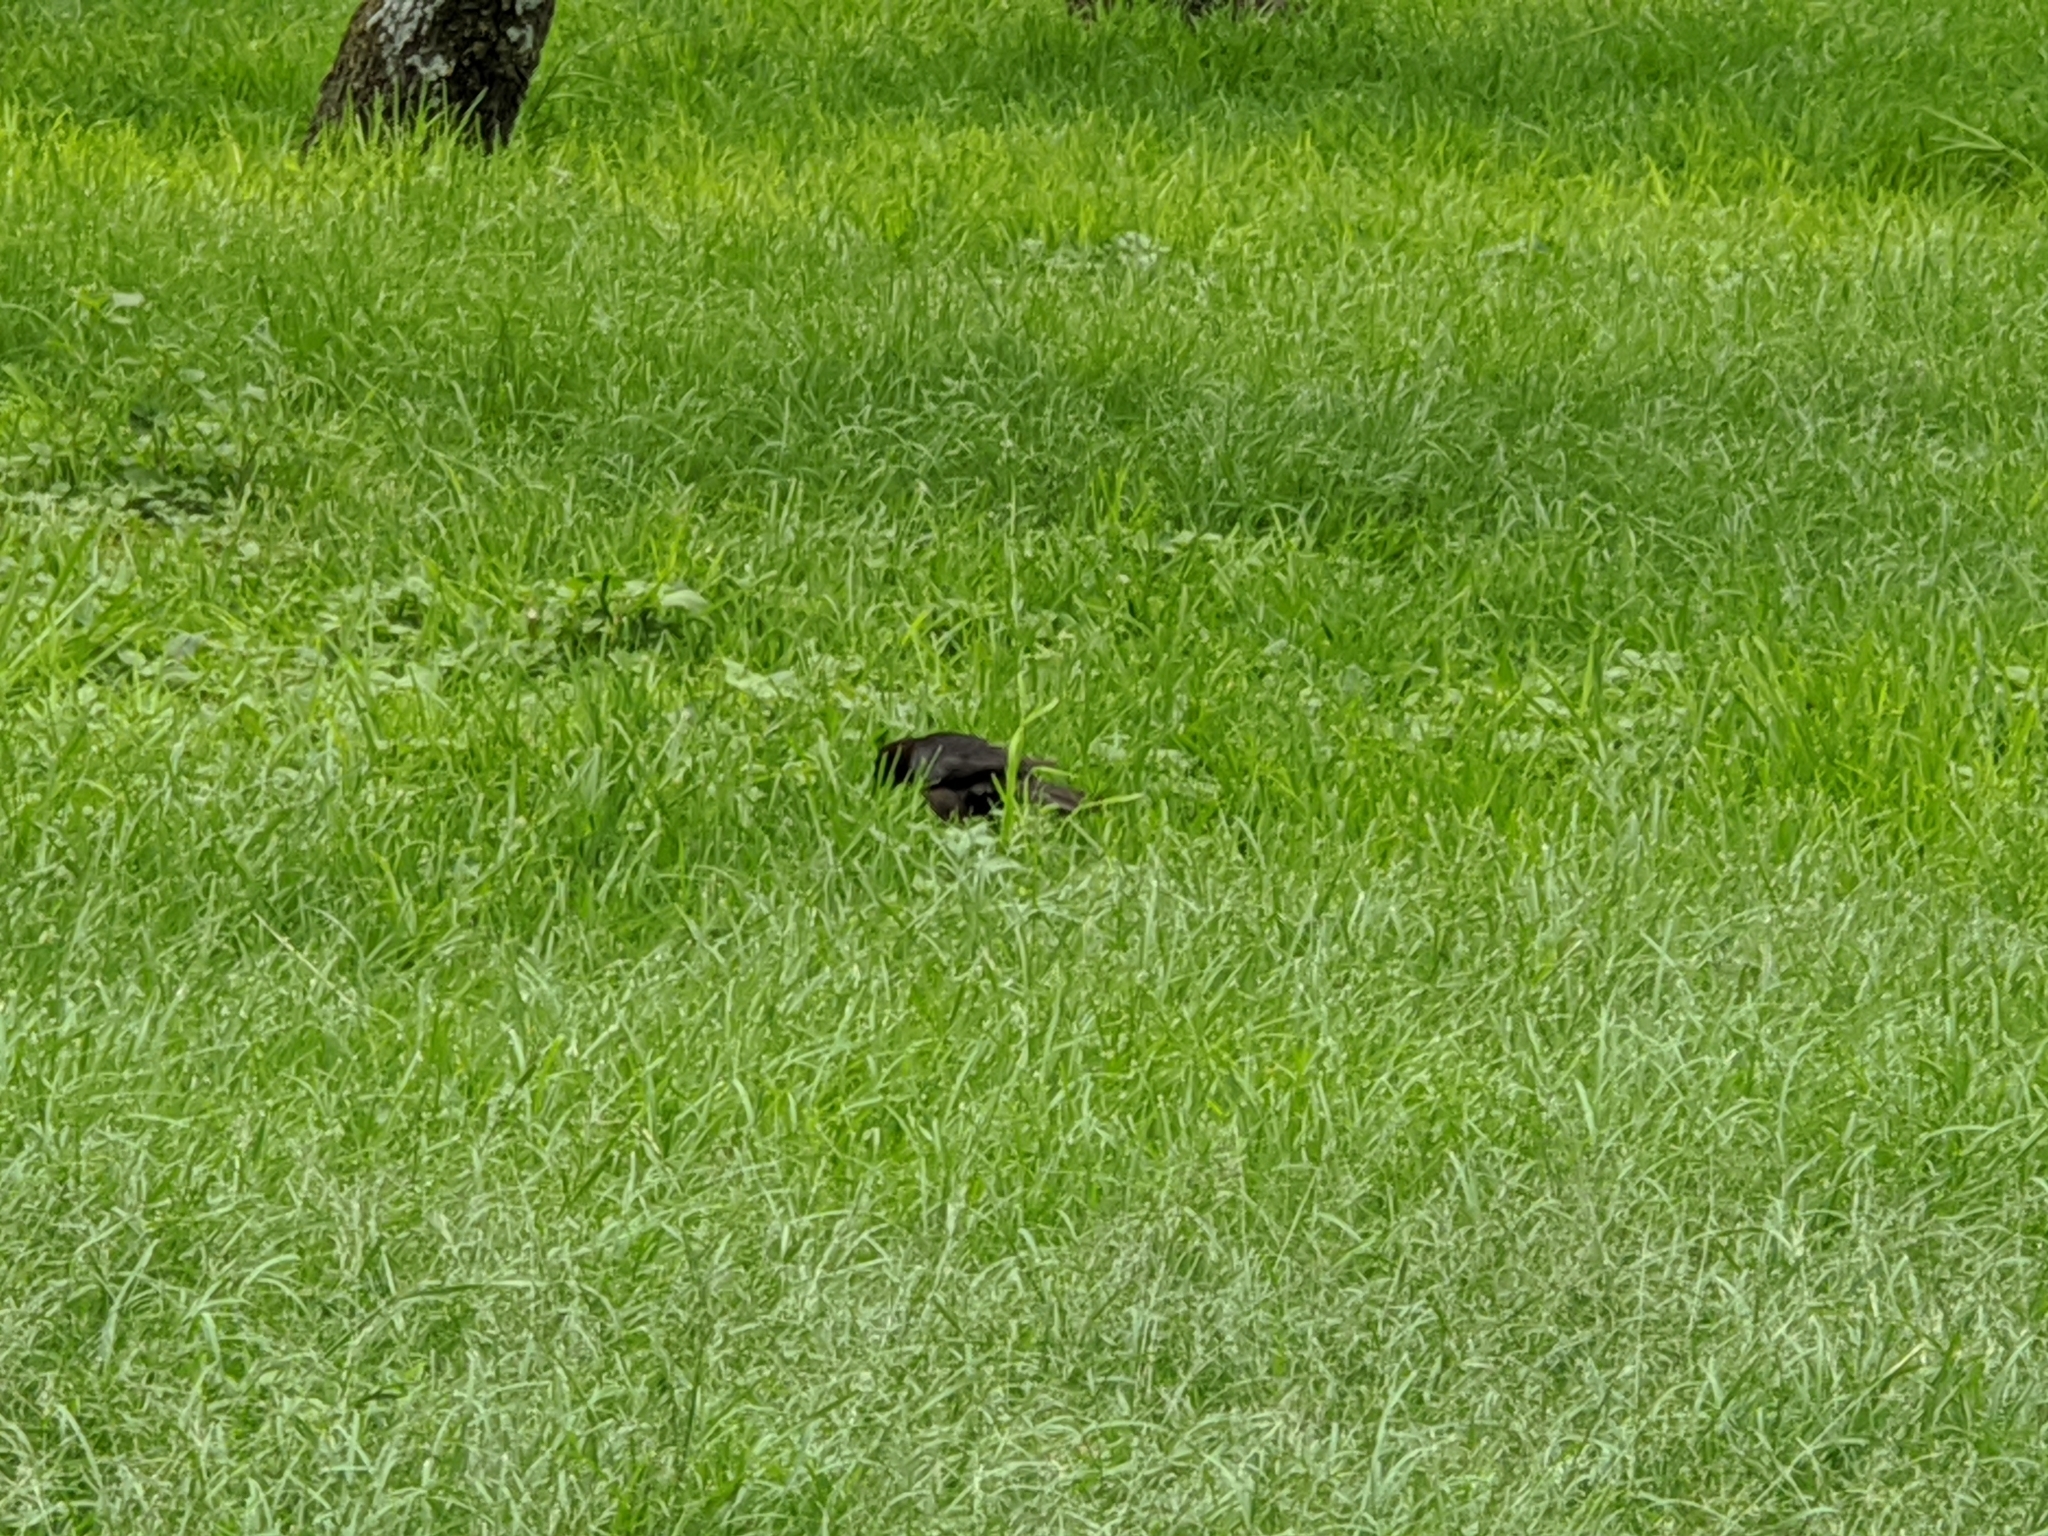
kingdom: Animalia
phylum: Chordata
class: Aves
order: Passeriformes
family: Icteridae
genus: Quiscalus
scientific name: Quiscalus mexicanus
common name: Great-tailed grackle
